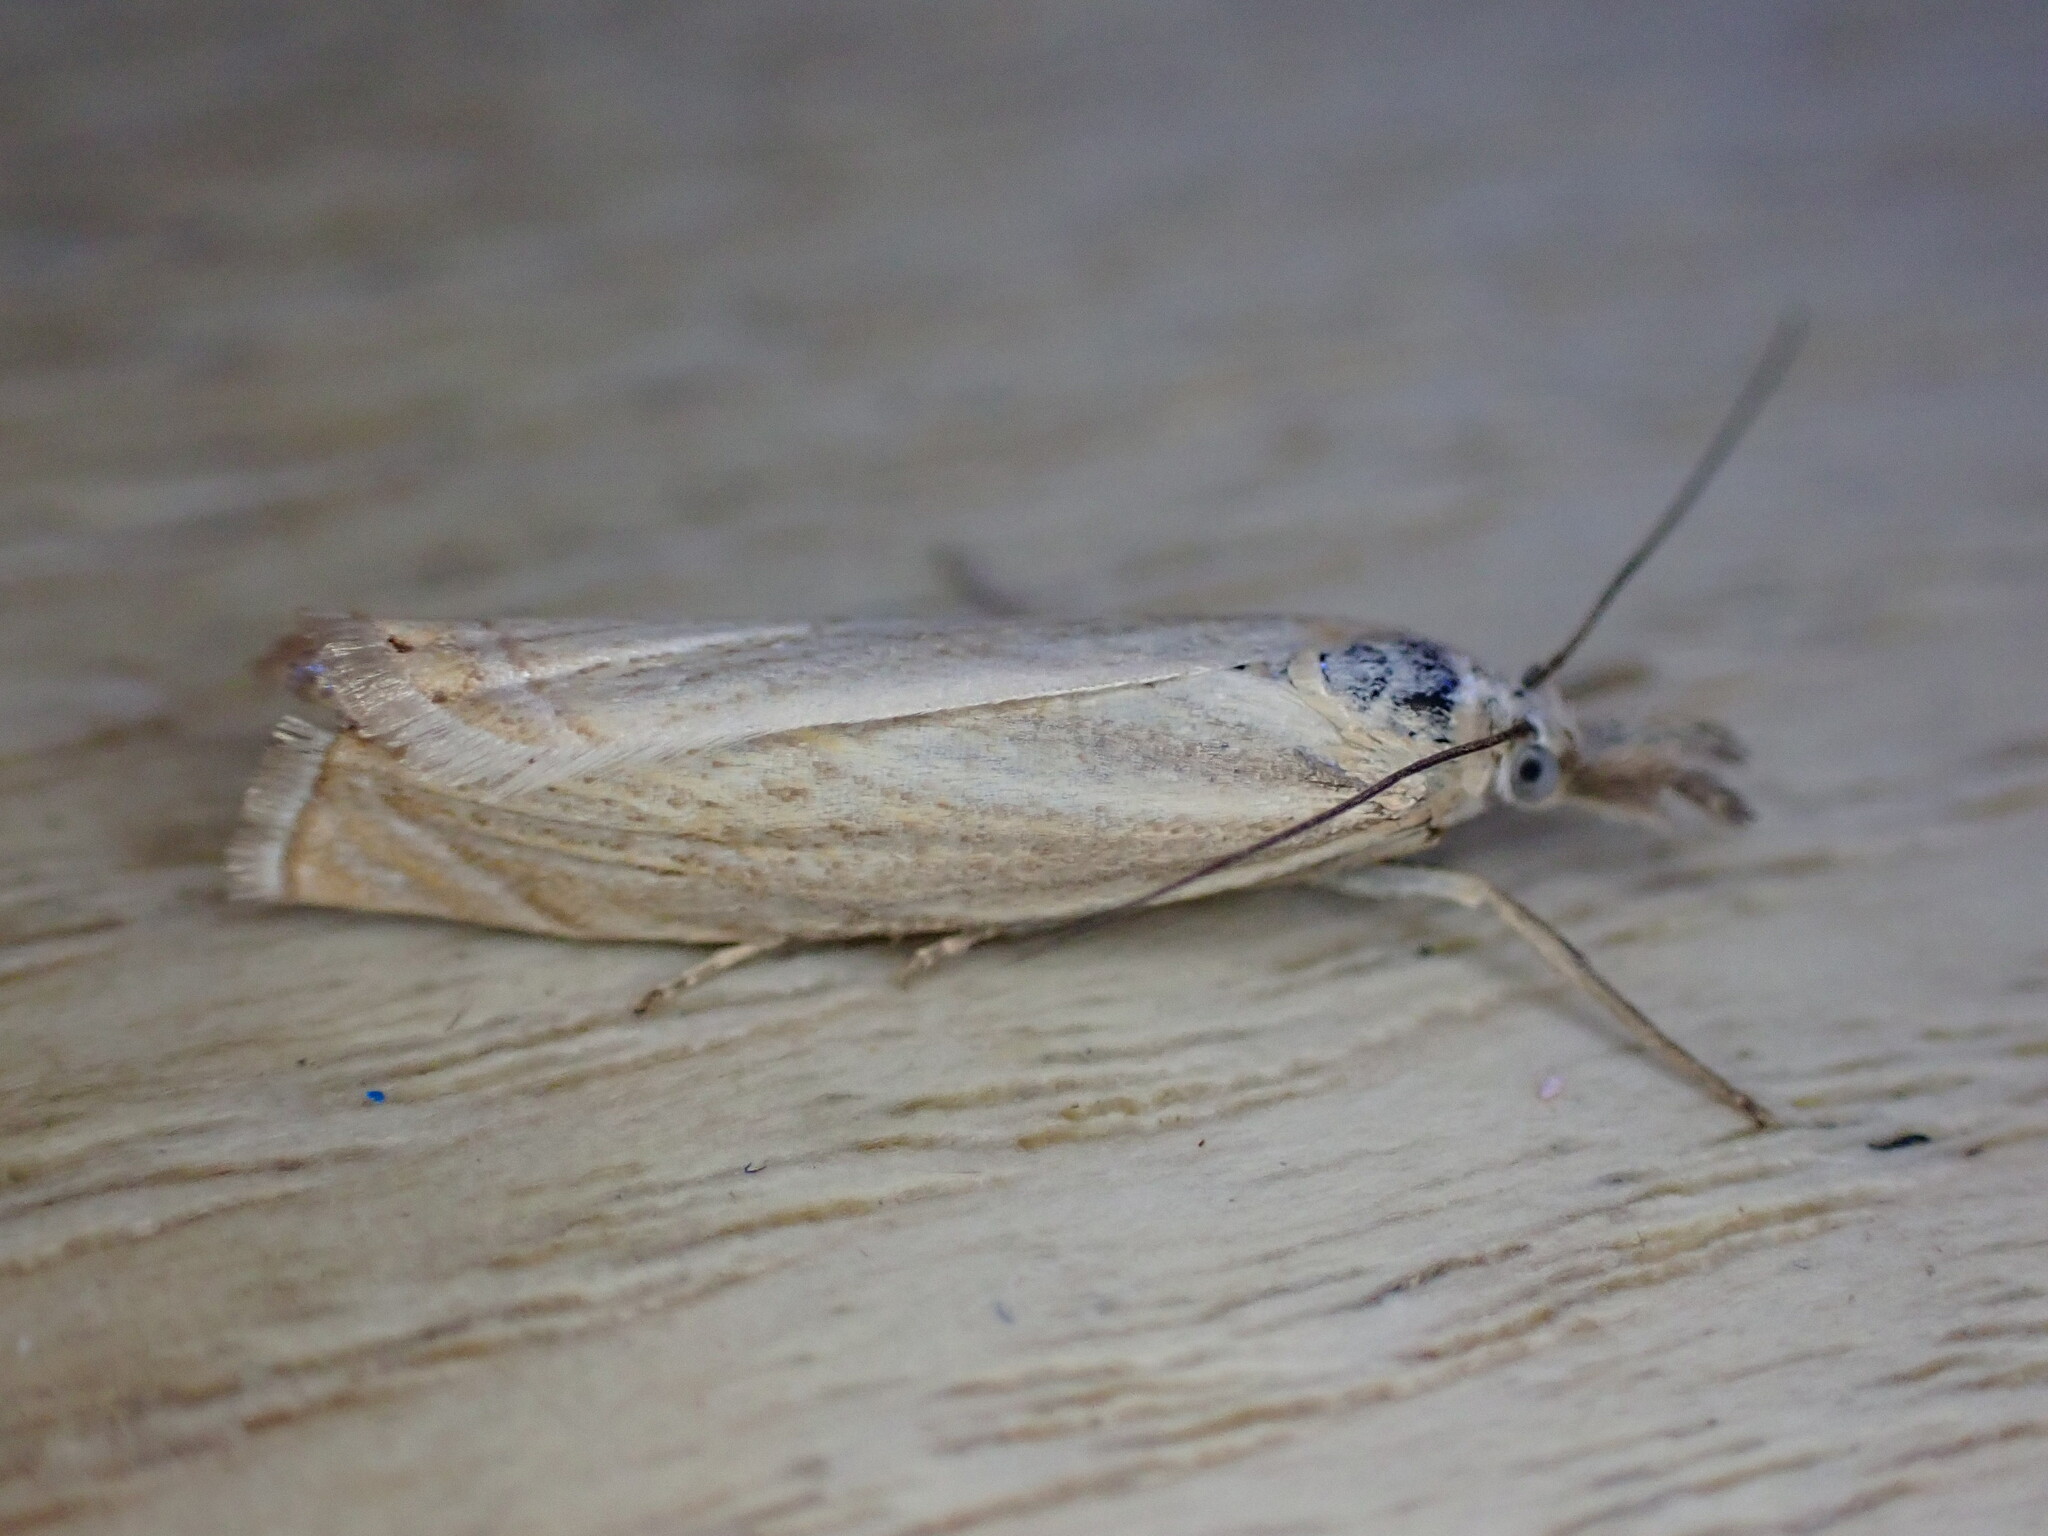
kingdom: Animalia
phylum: Arthropoda
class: Insecta
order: Lepidoptera
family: Crambidae
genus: Chrysoteuchia
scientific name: Chrysoteuchia culmella
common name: Garden grass-veneer
